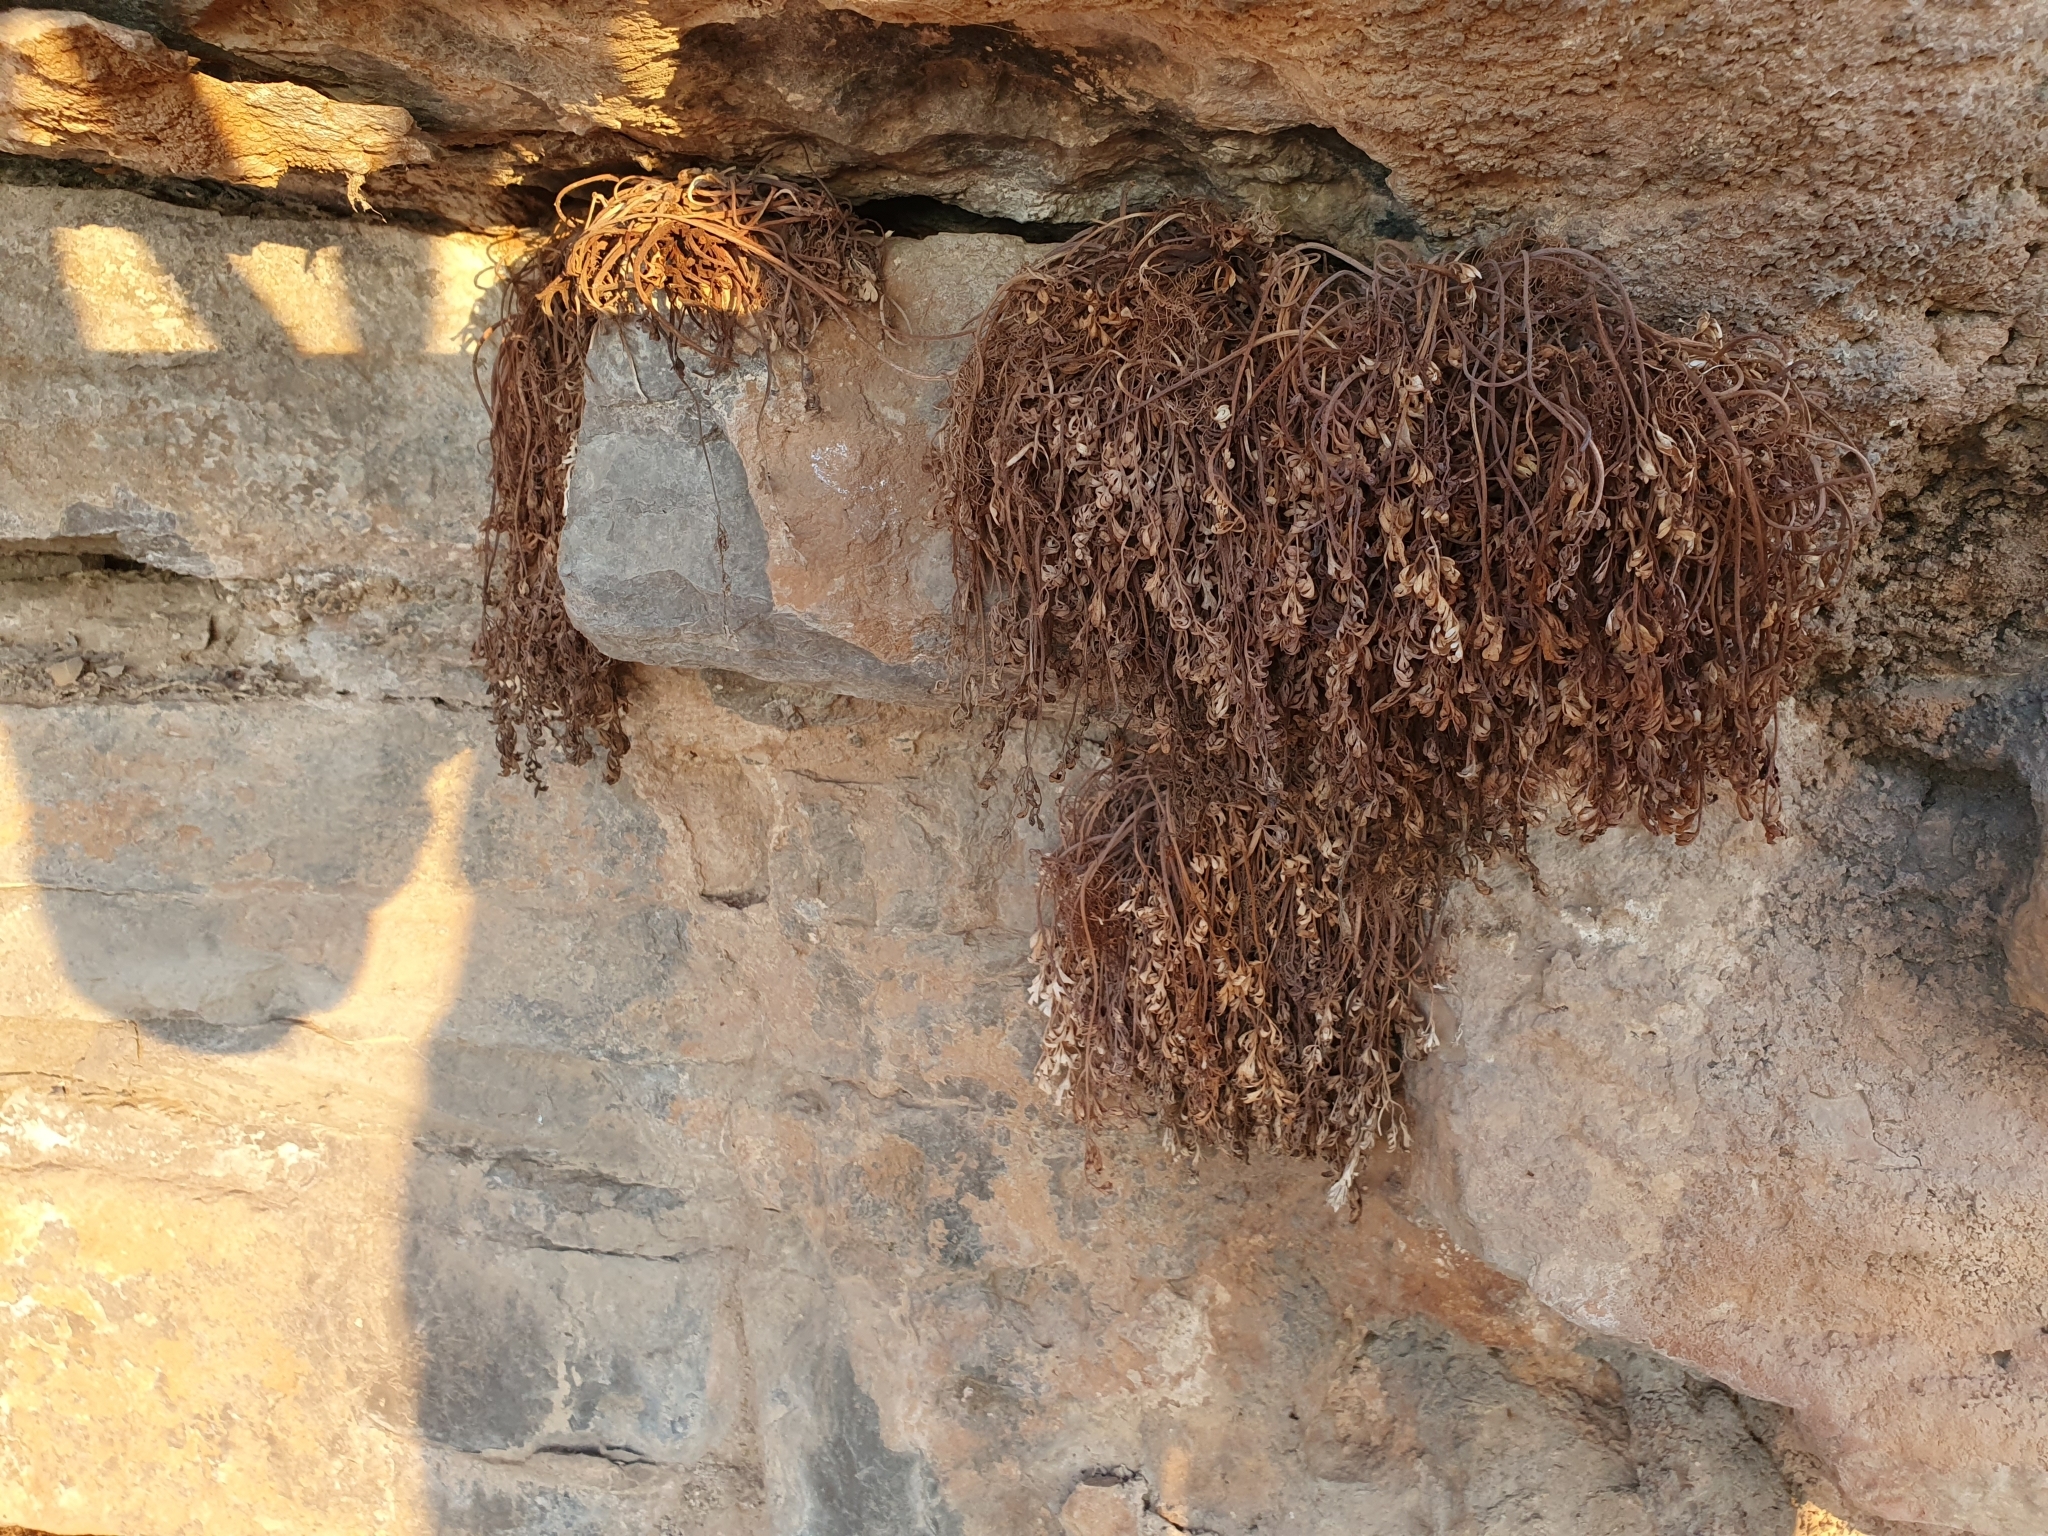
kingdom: Plantae
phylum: Tracheophyta
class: Magnoliopsida
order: Ranunculales
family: Papaveraceae
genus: Rupicapnos
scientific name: Rupicapnos numidica
